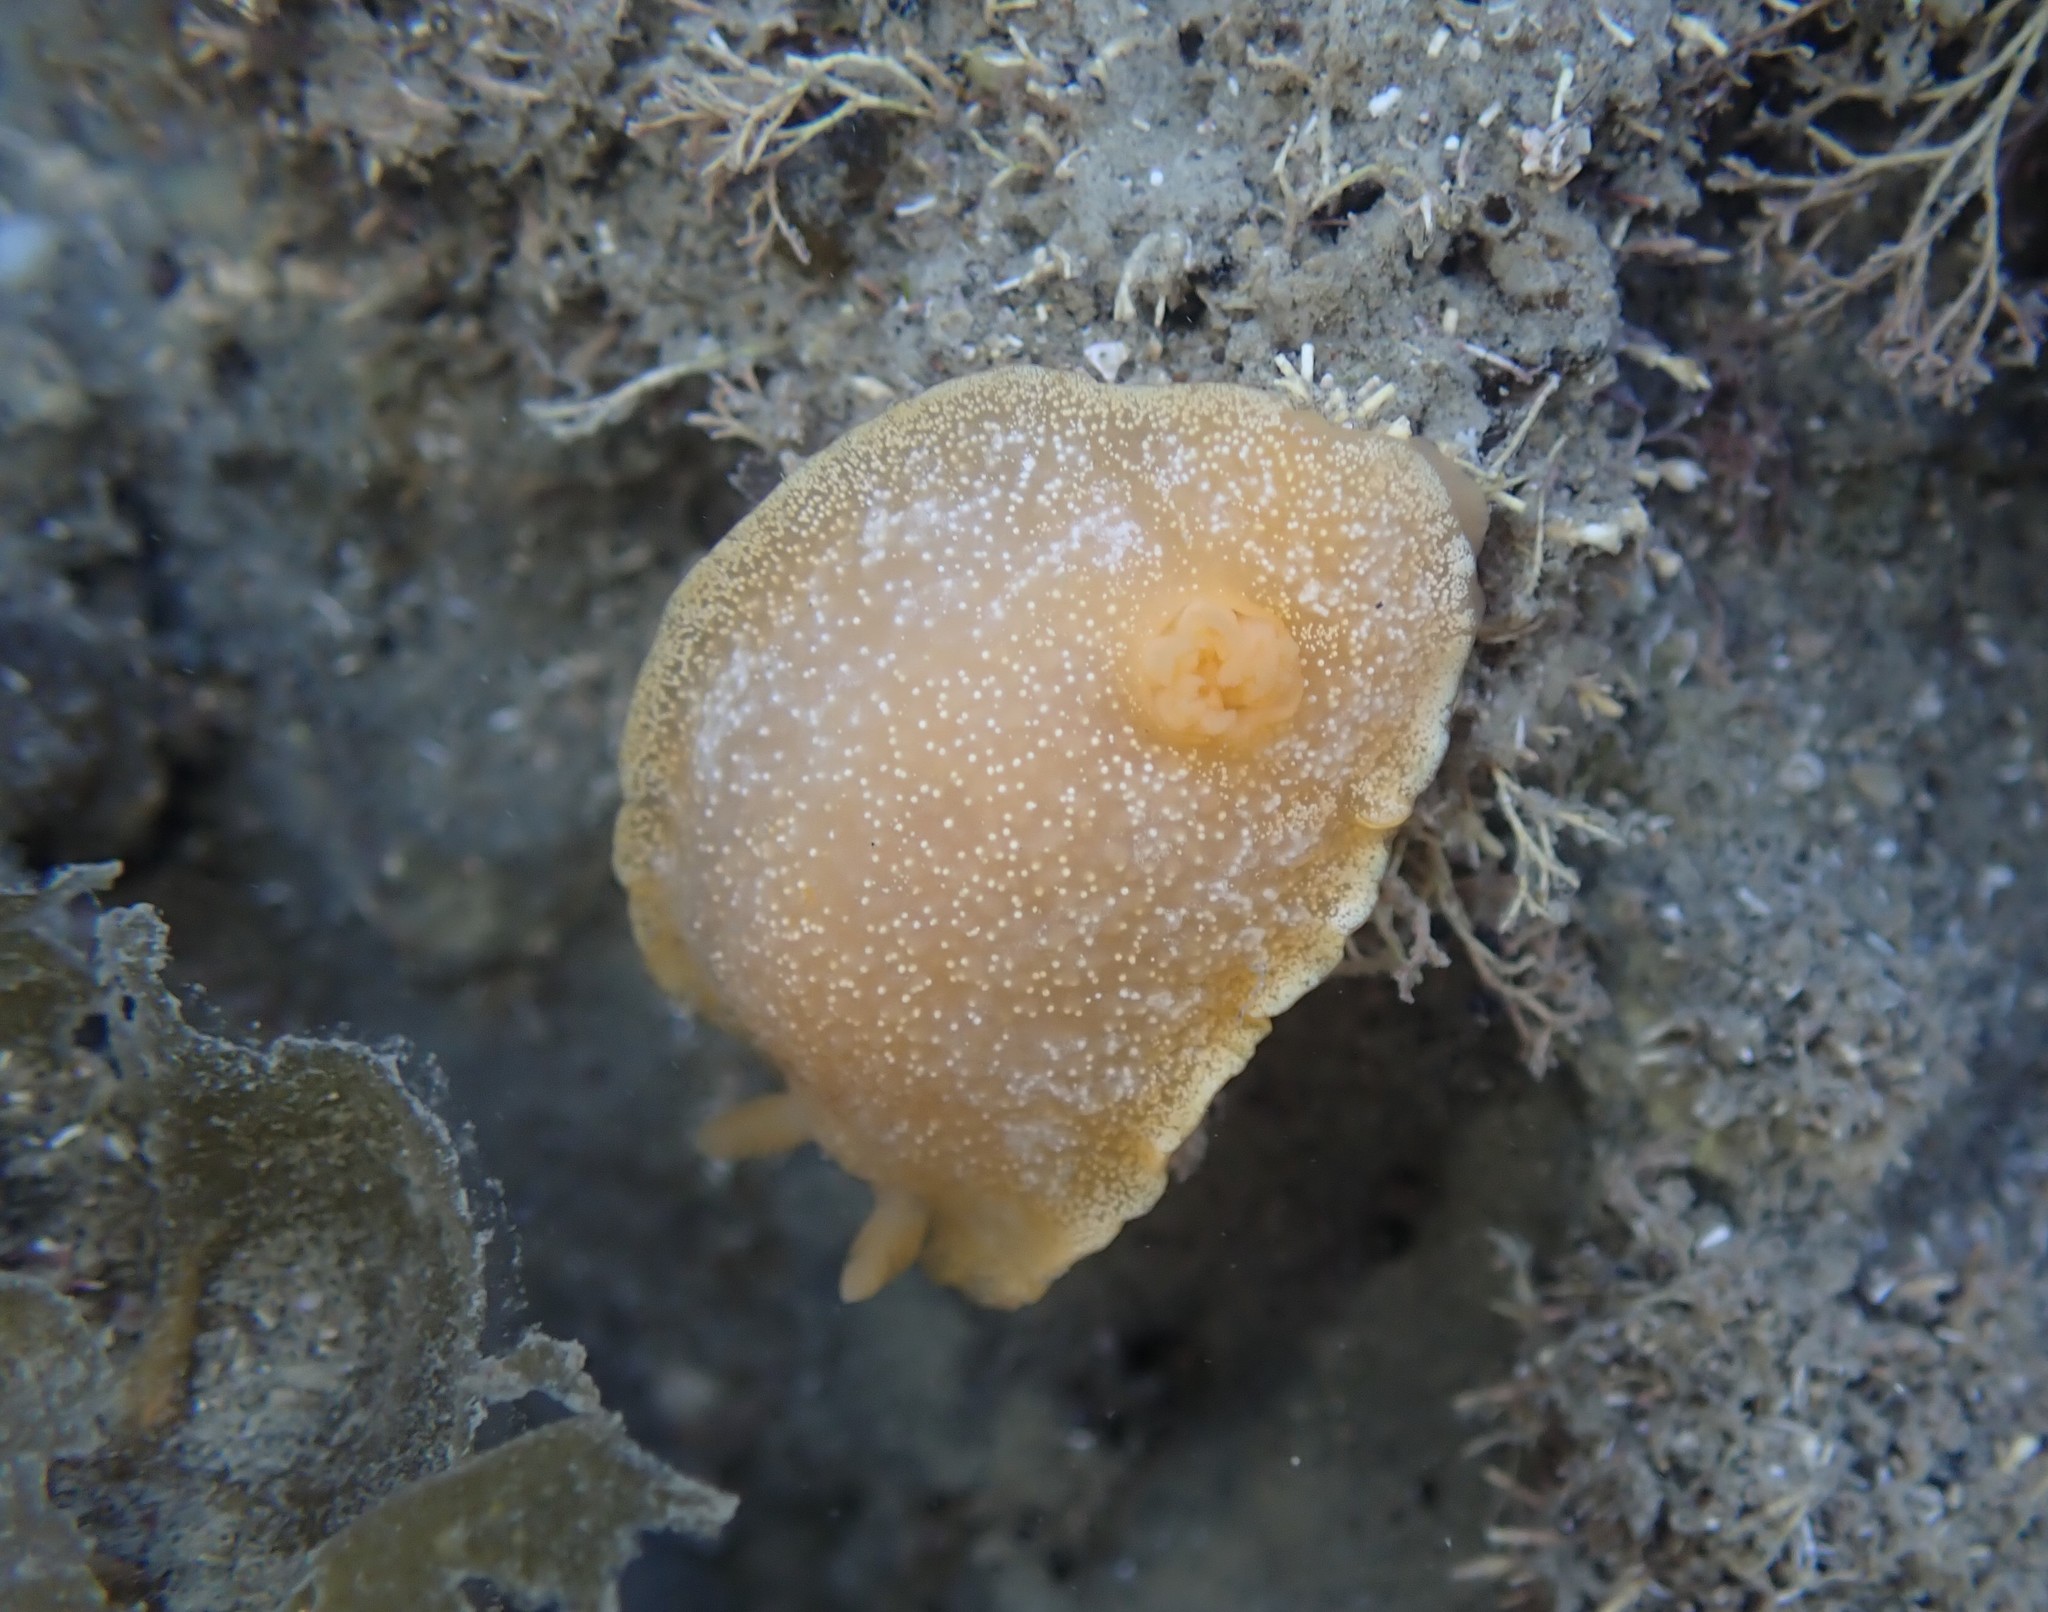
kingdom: Animalia
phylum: Mollusca
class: Gastropoda
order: Nudibranchia
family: Dendrodorididae
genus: Dendrodoris
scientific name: Dendrodoris citrina
